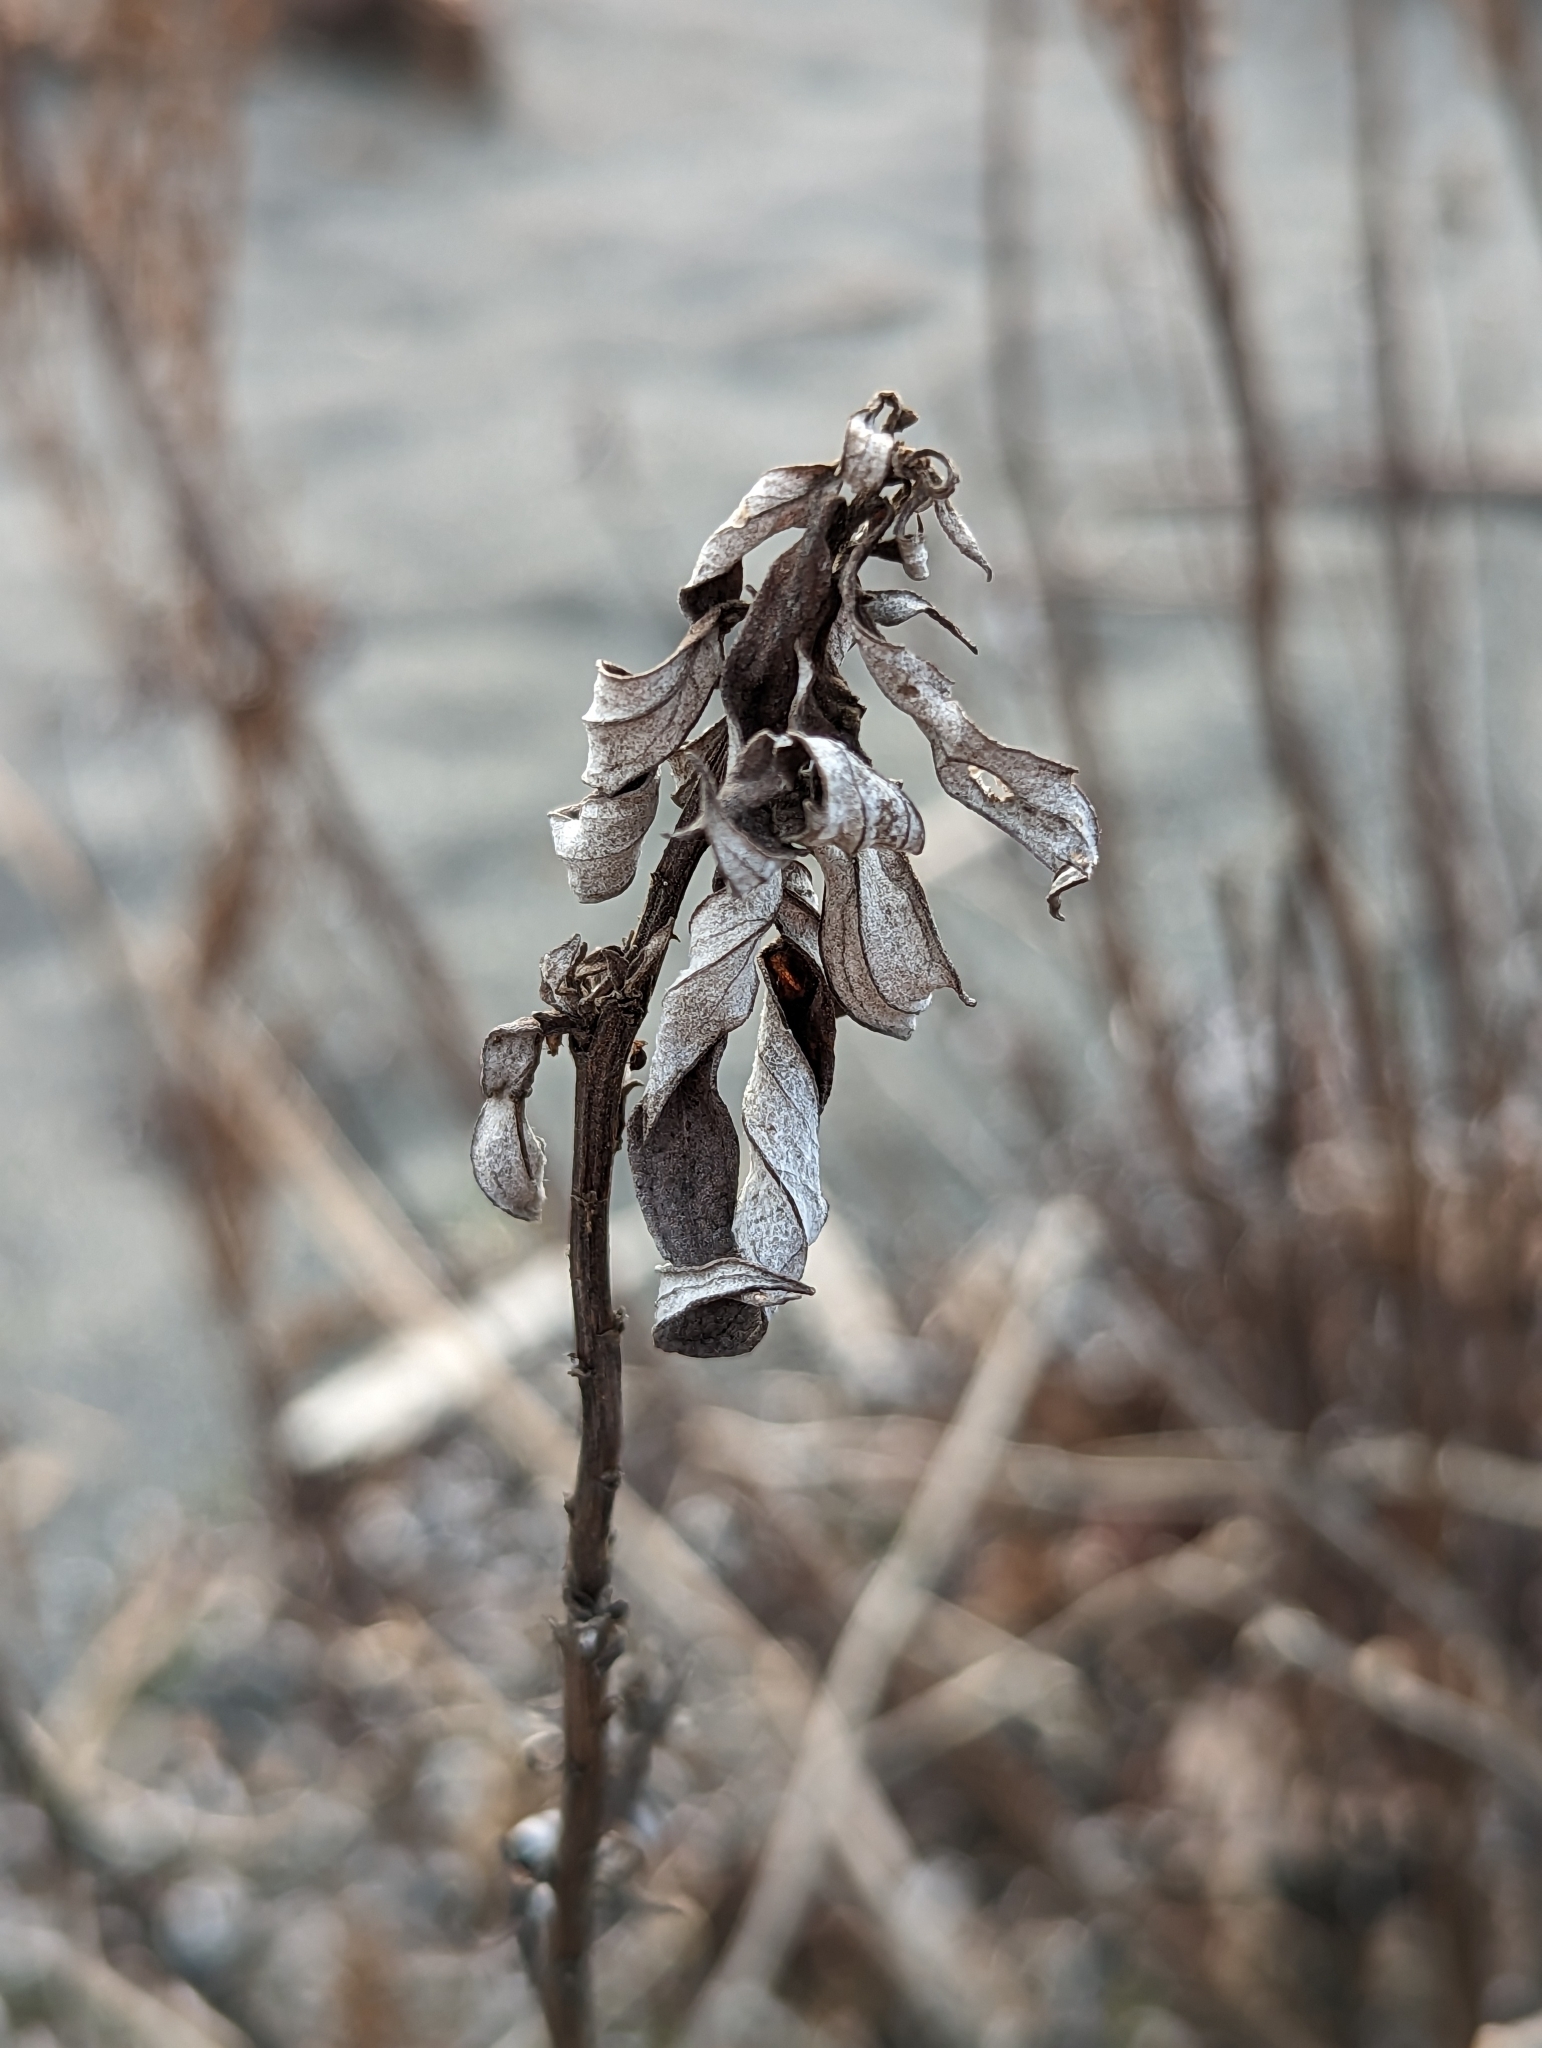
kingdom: Plantae
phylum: Tracheophyta
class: Magnoliopsida
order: Asterales
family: Asteraceae
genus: Artemisia
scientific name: Artemisia suksdorfii
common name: Suksdorf sagewort
